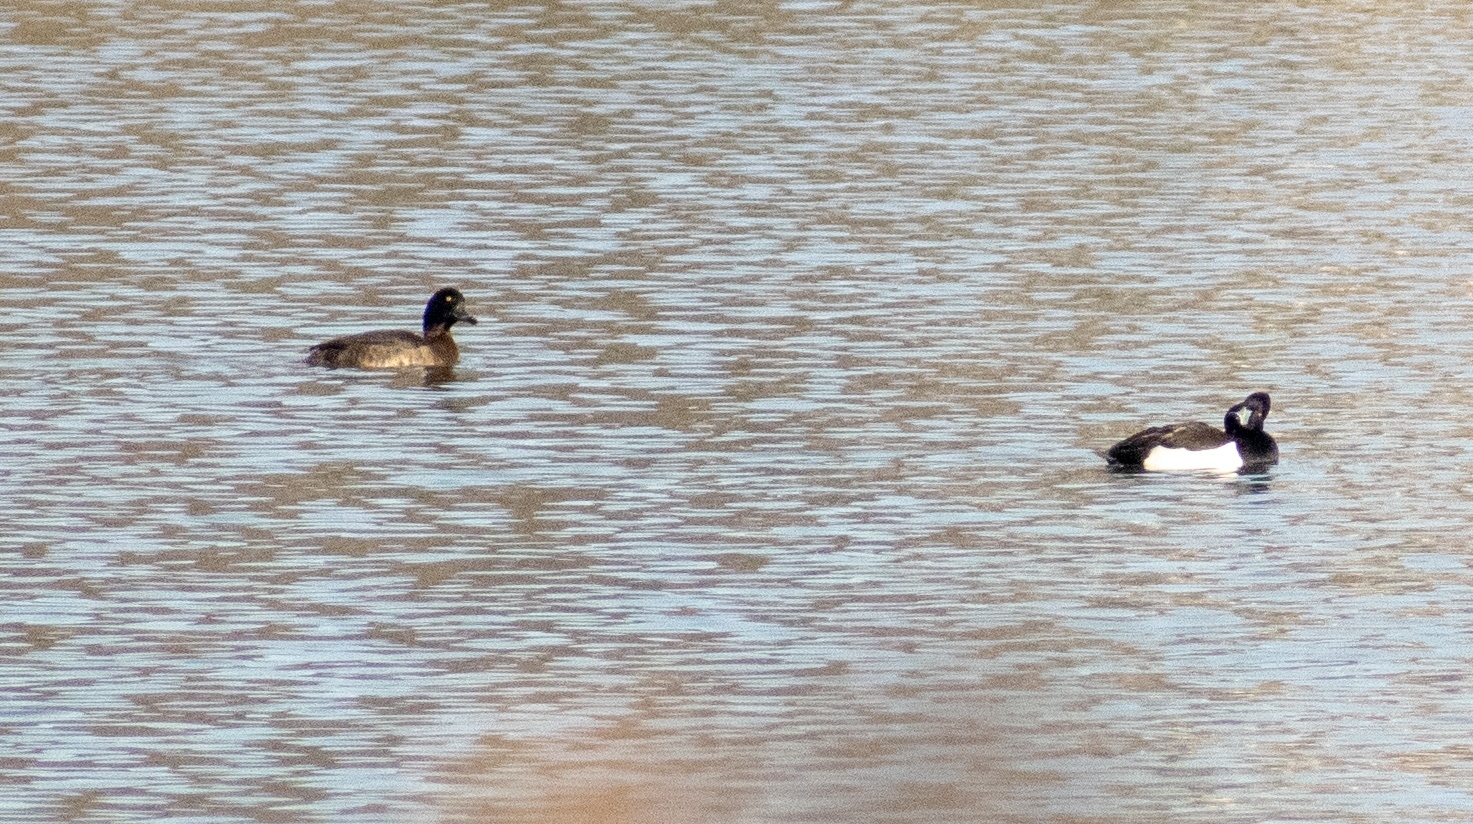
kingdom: Animalia
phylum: Chordata
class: Aves
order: Anseriformes
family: Anatidae
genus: Aythya
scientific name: Aythya fuligula
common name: Tufted duck
